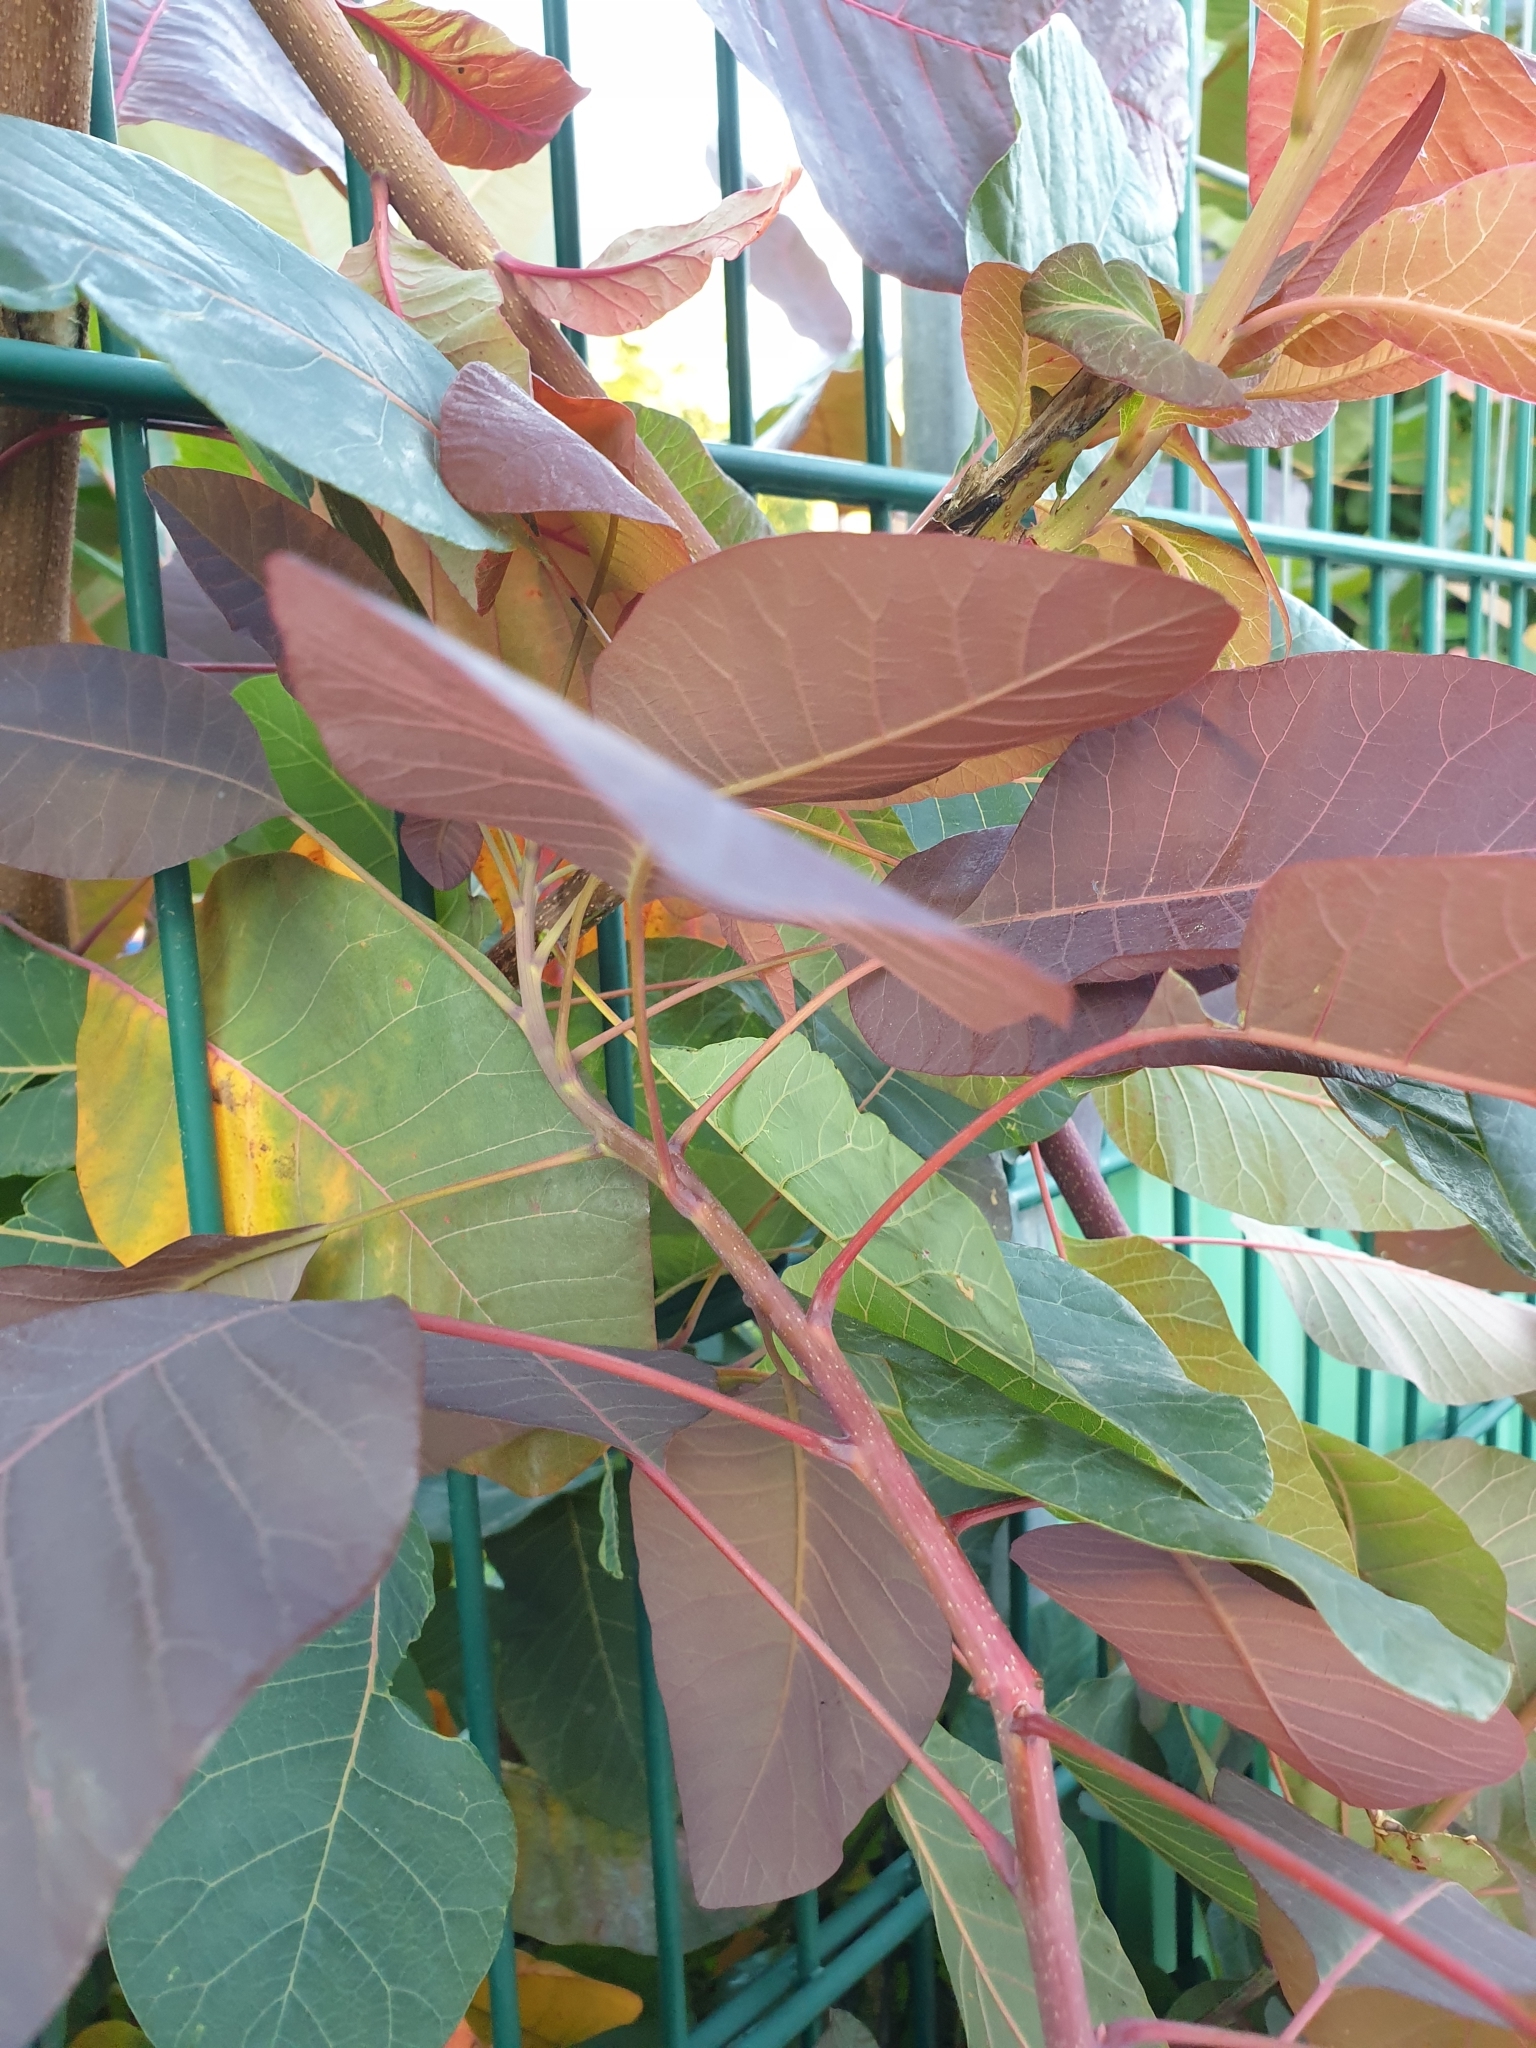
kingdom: Plantae
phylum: Tracheophyta
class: Magnoliopsida
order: Sapindales
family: Anacardiaceae
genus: Cotinus
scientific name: Cotinus coggygria
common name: Smoke-tree
